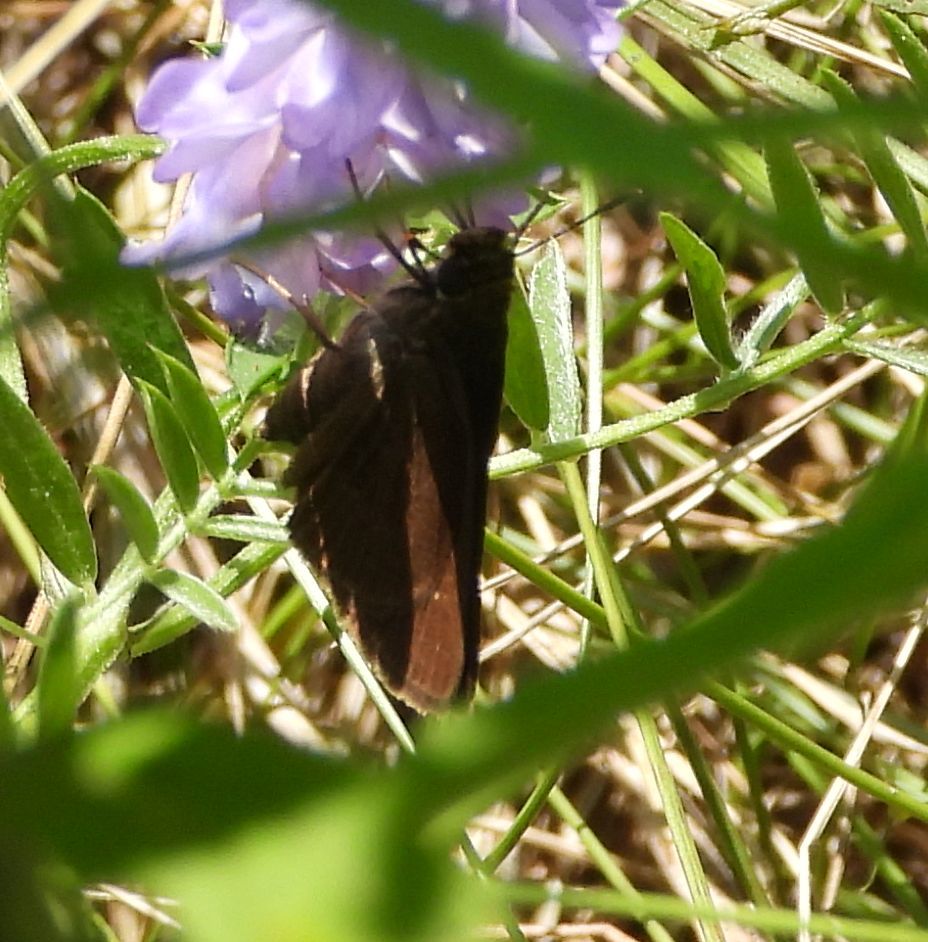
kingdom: Animalia
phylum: Arthropoda
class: Insecta
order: Lepidoptera
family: Hesperiidae
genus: Euphyes
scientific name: Euphyes vestris
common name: Dun skipper
